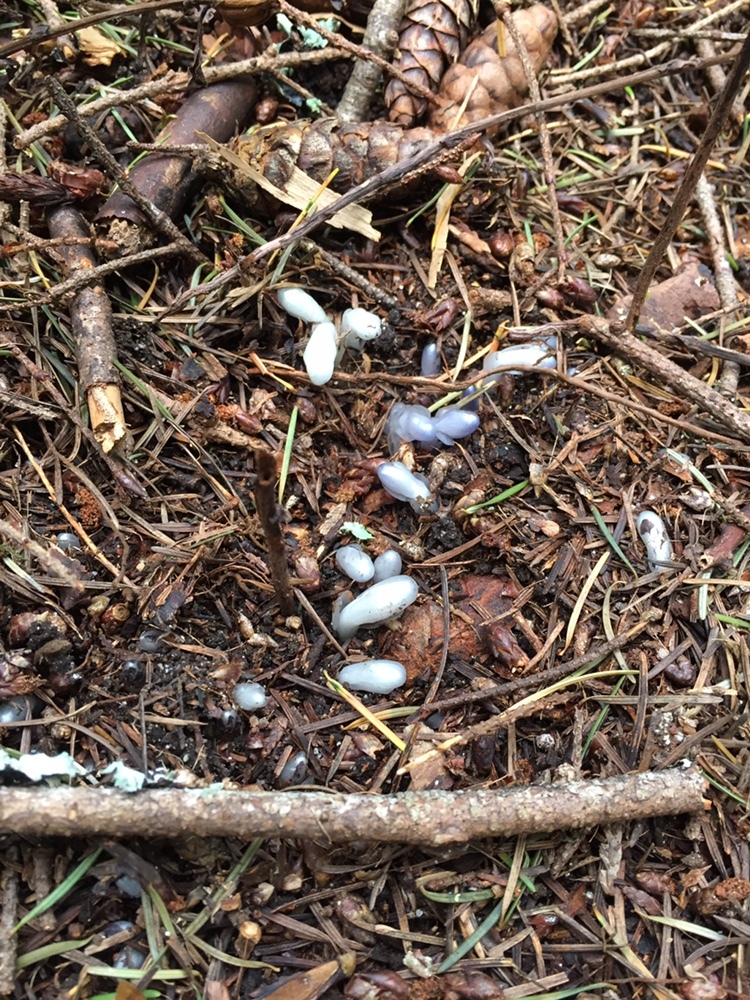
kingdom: Plantae
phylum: Tracheophyta
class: Magnoliopsida
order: Ericales
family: Ericaceae
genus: Monotropa
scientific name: Monotropa uniflora
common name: Convulsion root
